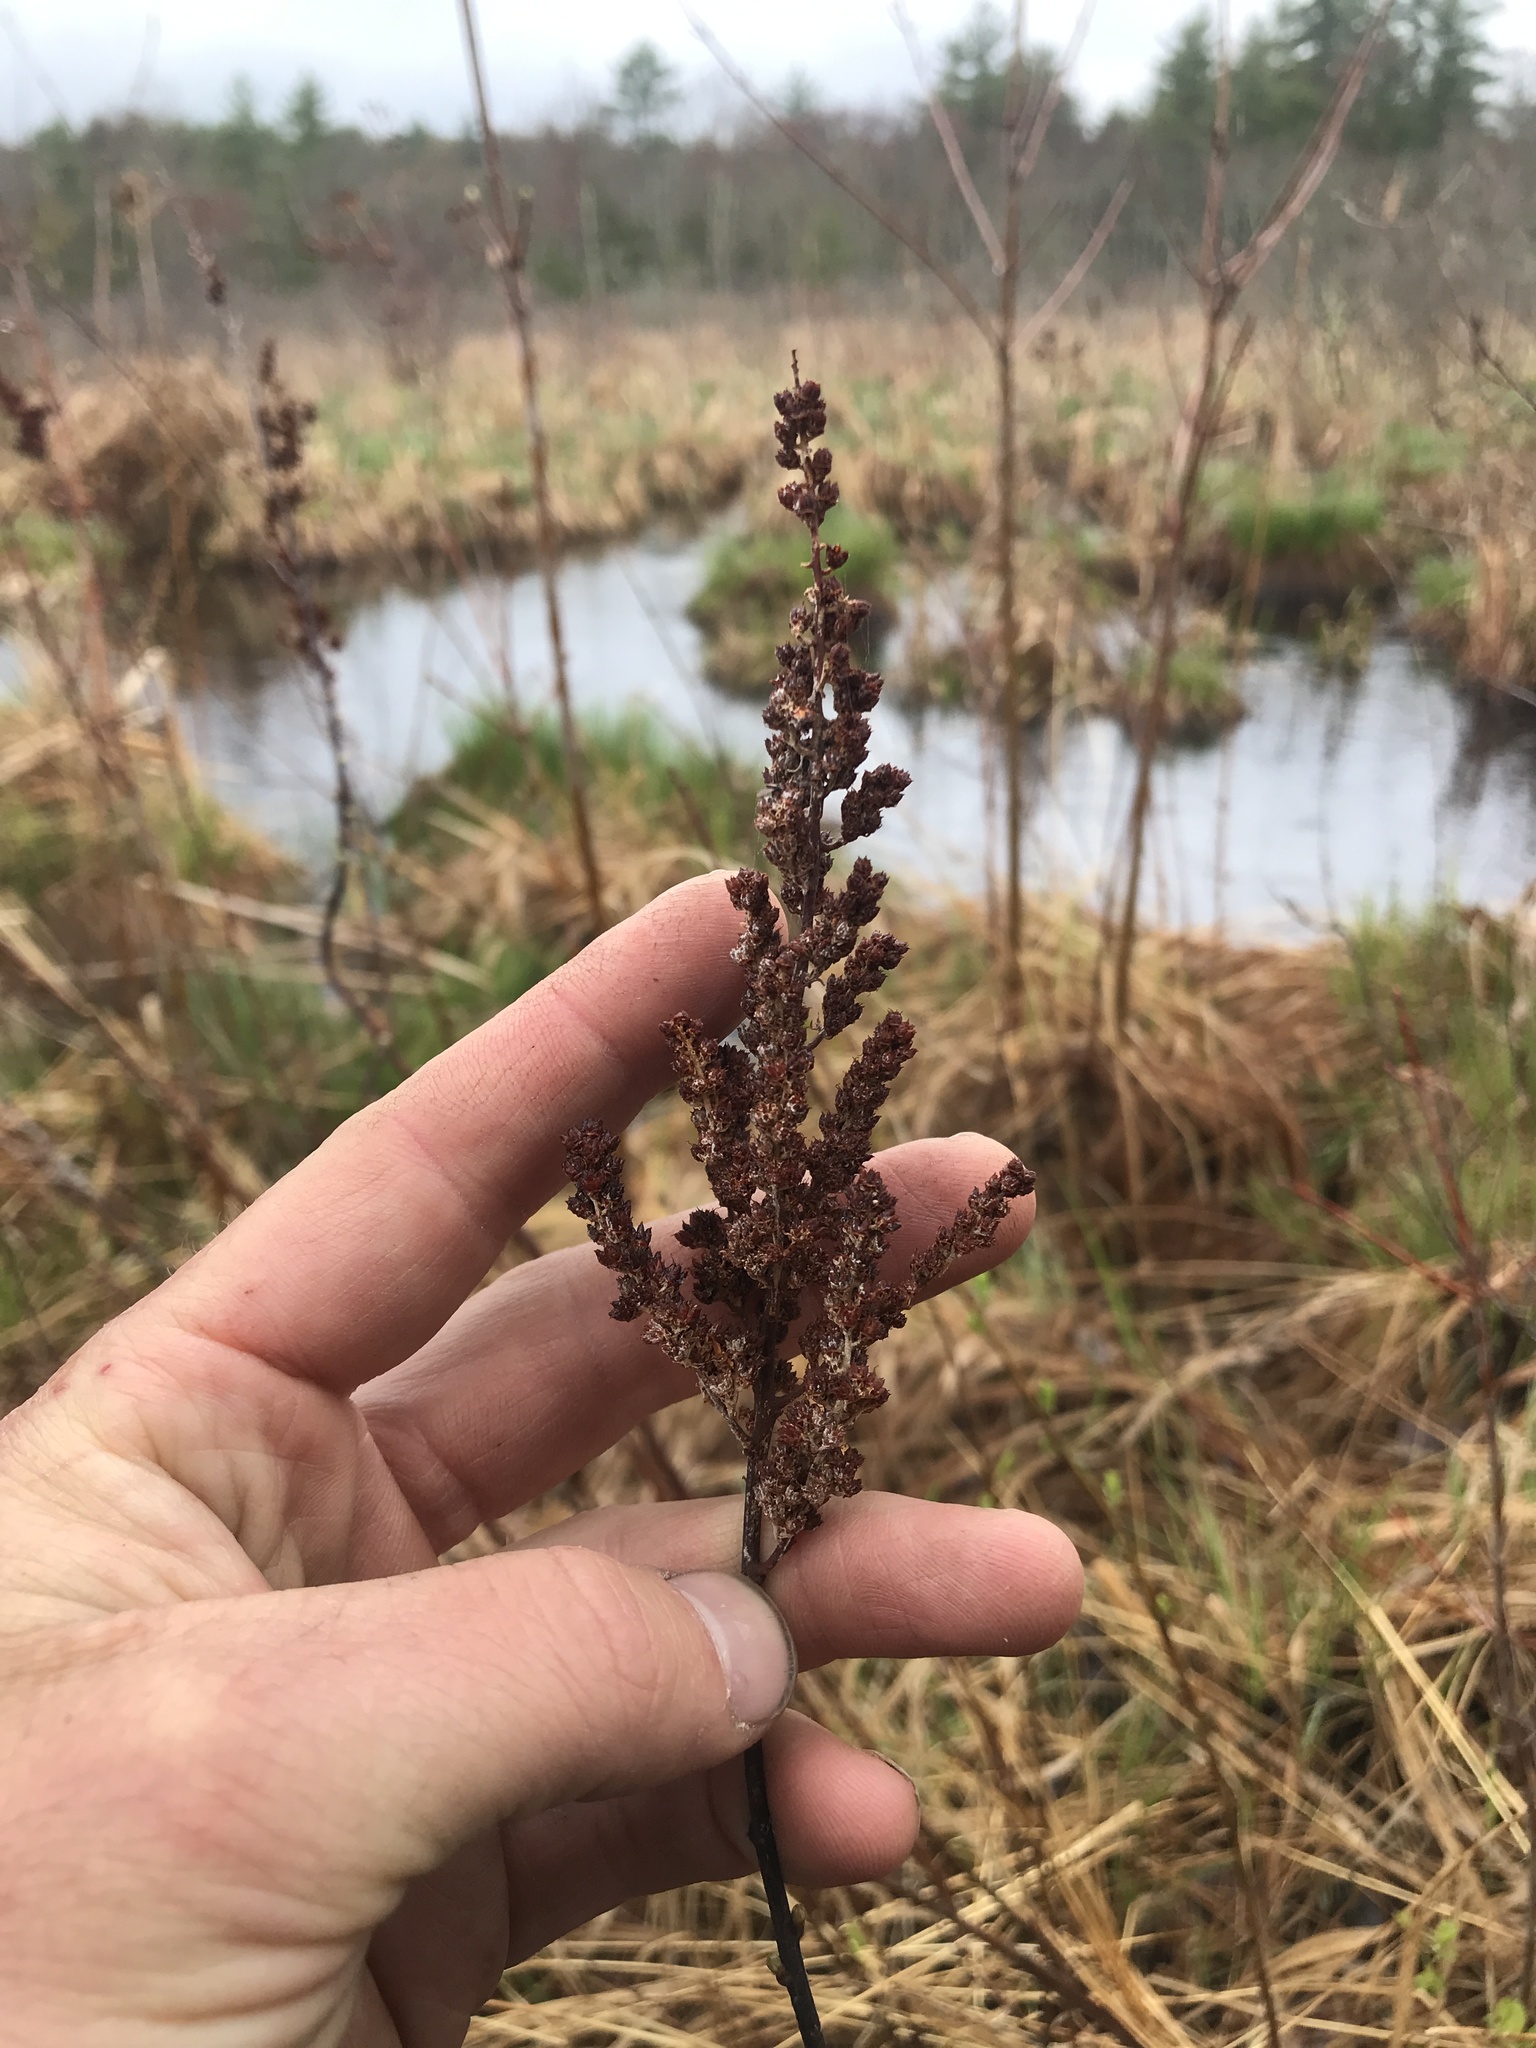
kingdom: Plantae
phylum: Tracheophyta
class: Magnoliopsida
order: Rosales
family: Rosaceae
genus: Spiraea
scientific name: Spiraea tomentosa
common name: Hardhack
